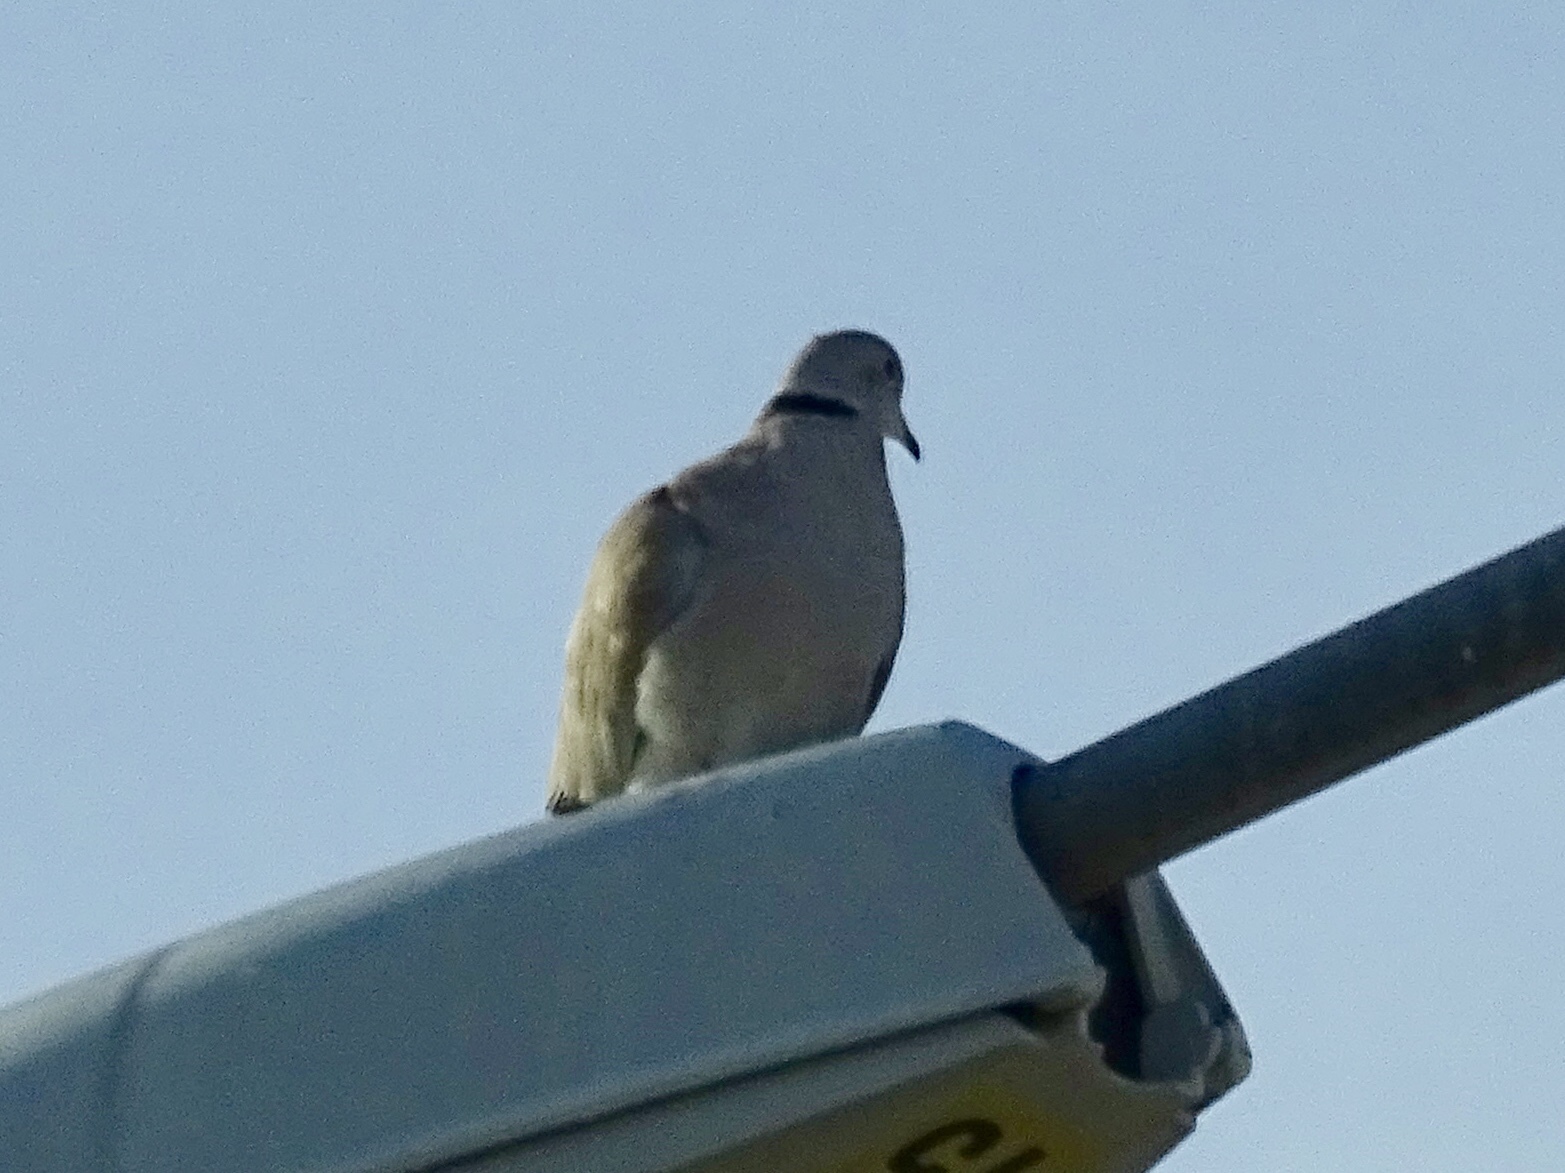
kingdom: Animalia
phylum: Chordata
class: Aves
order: Columbiformes
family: Columbidae
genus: Streptopelia
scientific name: Streptopelia decaocto
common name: Eurasian collared dove
